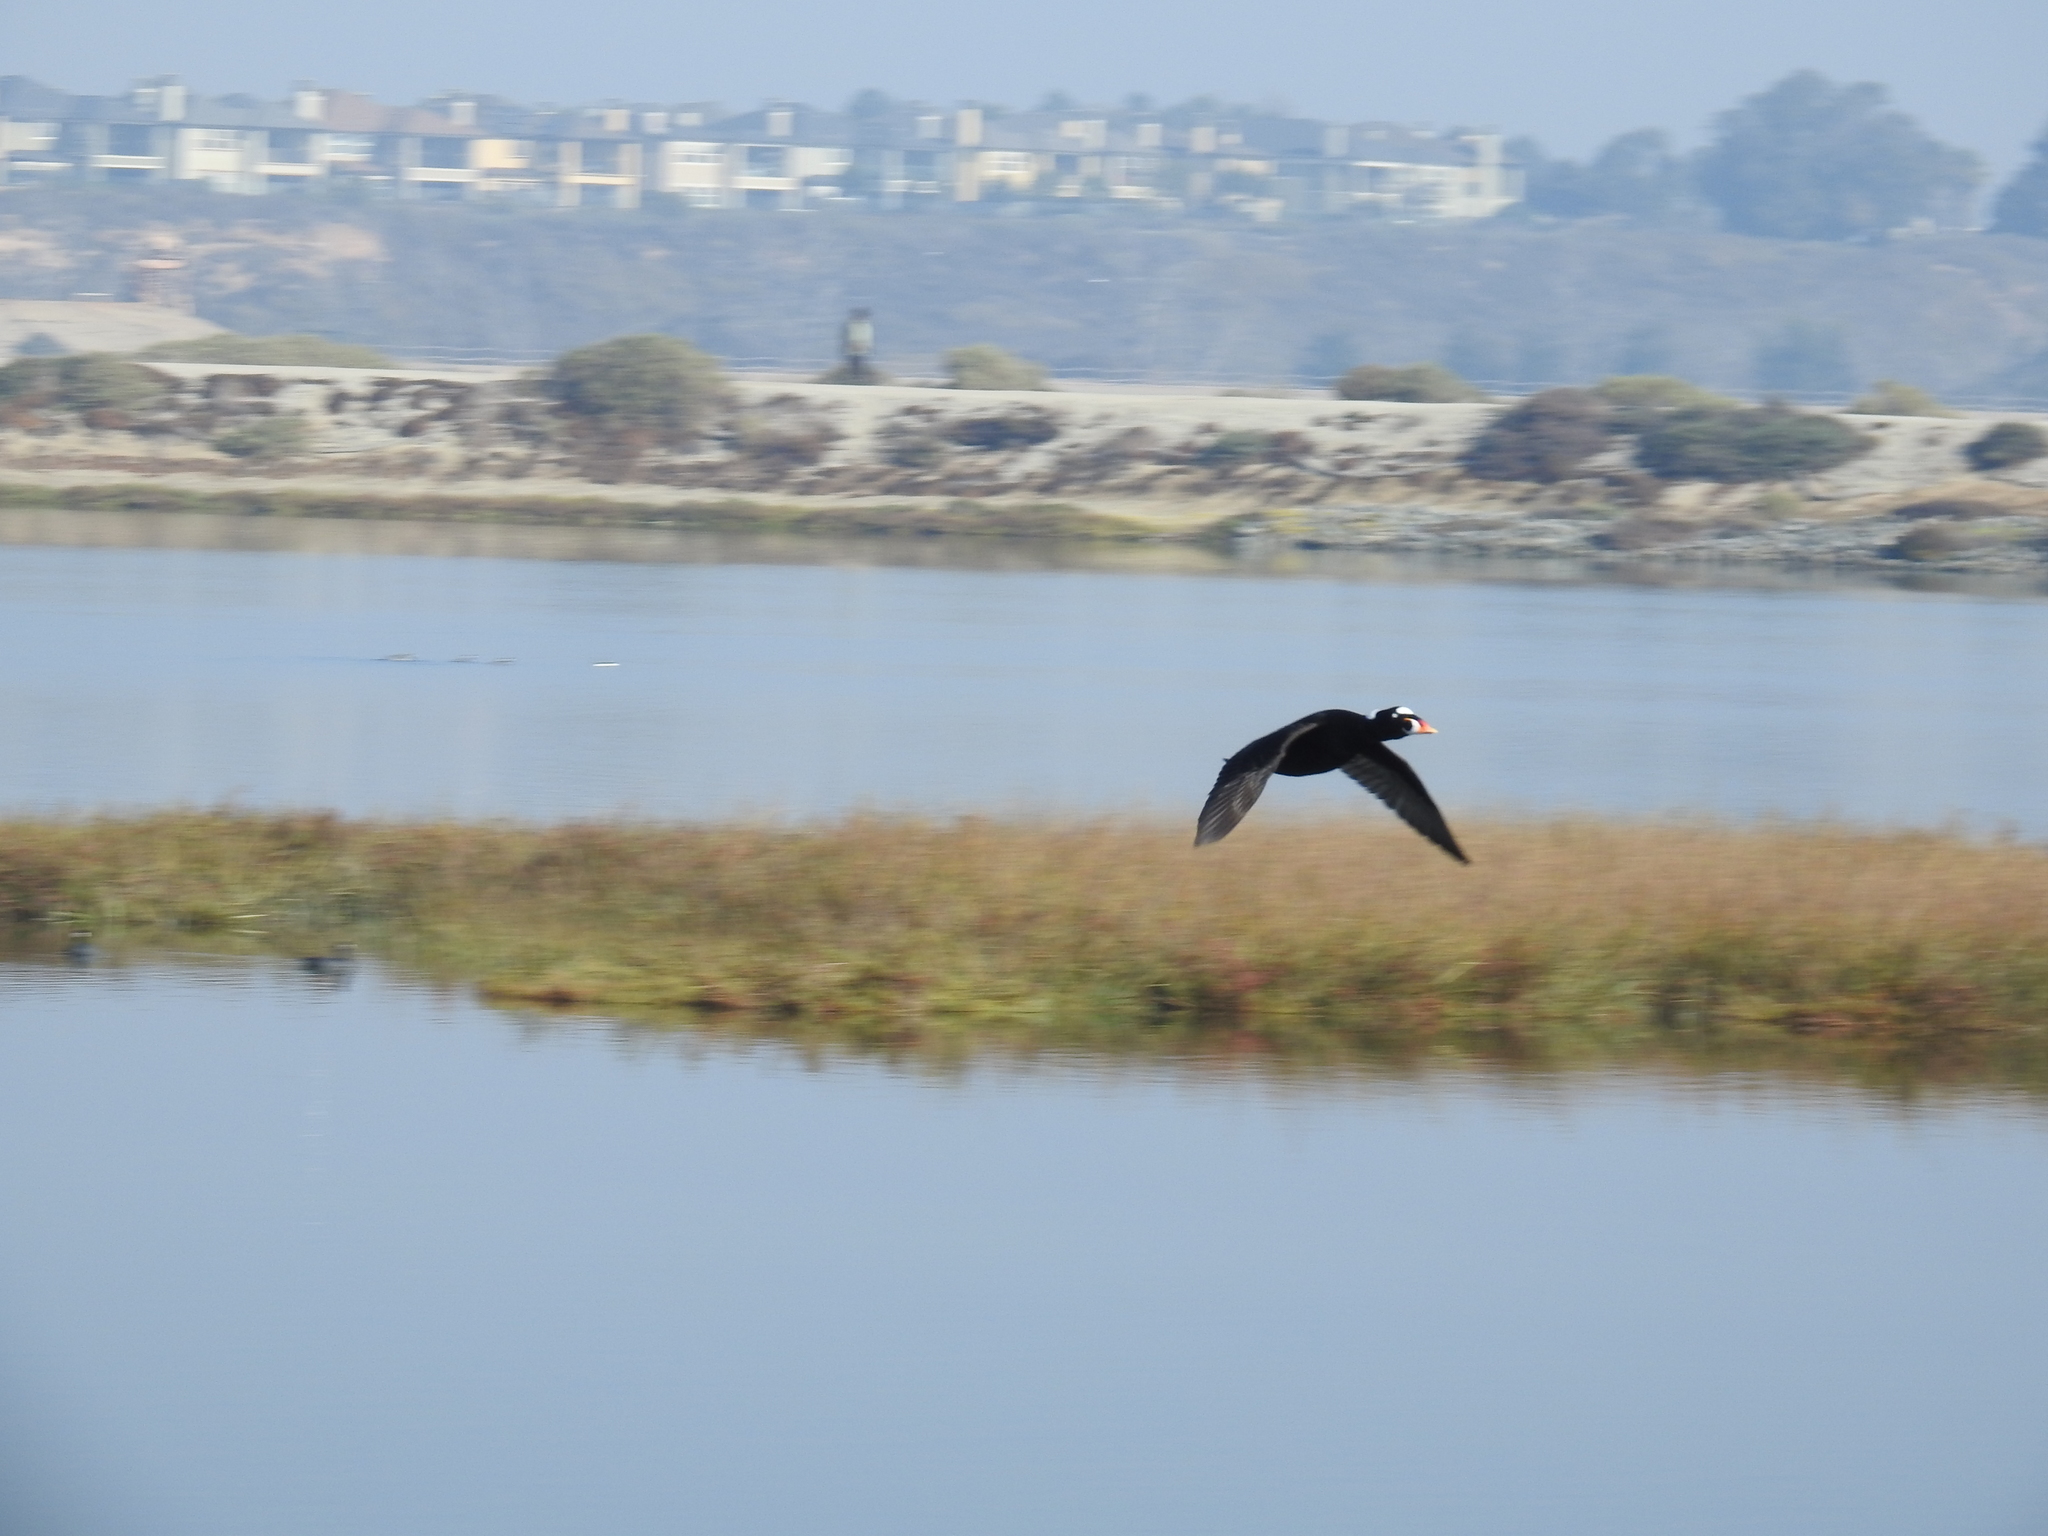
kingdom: Animalia
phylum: Chordata
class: Aves
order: Anseriformes
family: Anatidae
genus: Melanitta
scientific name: Melanitta perspicillata
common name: Surf scoter
